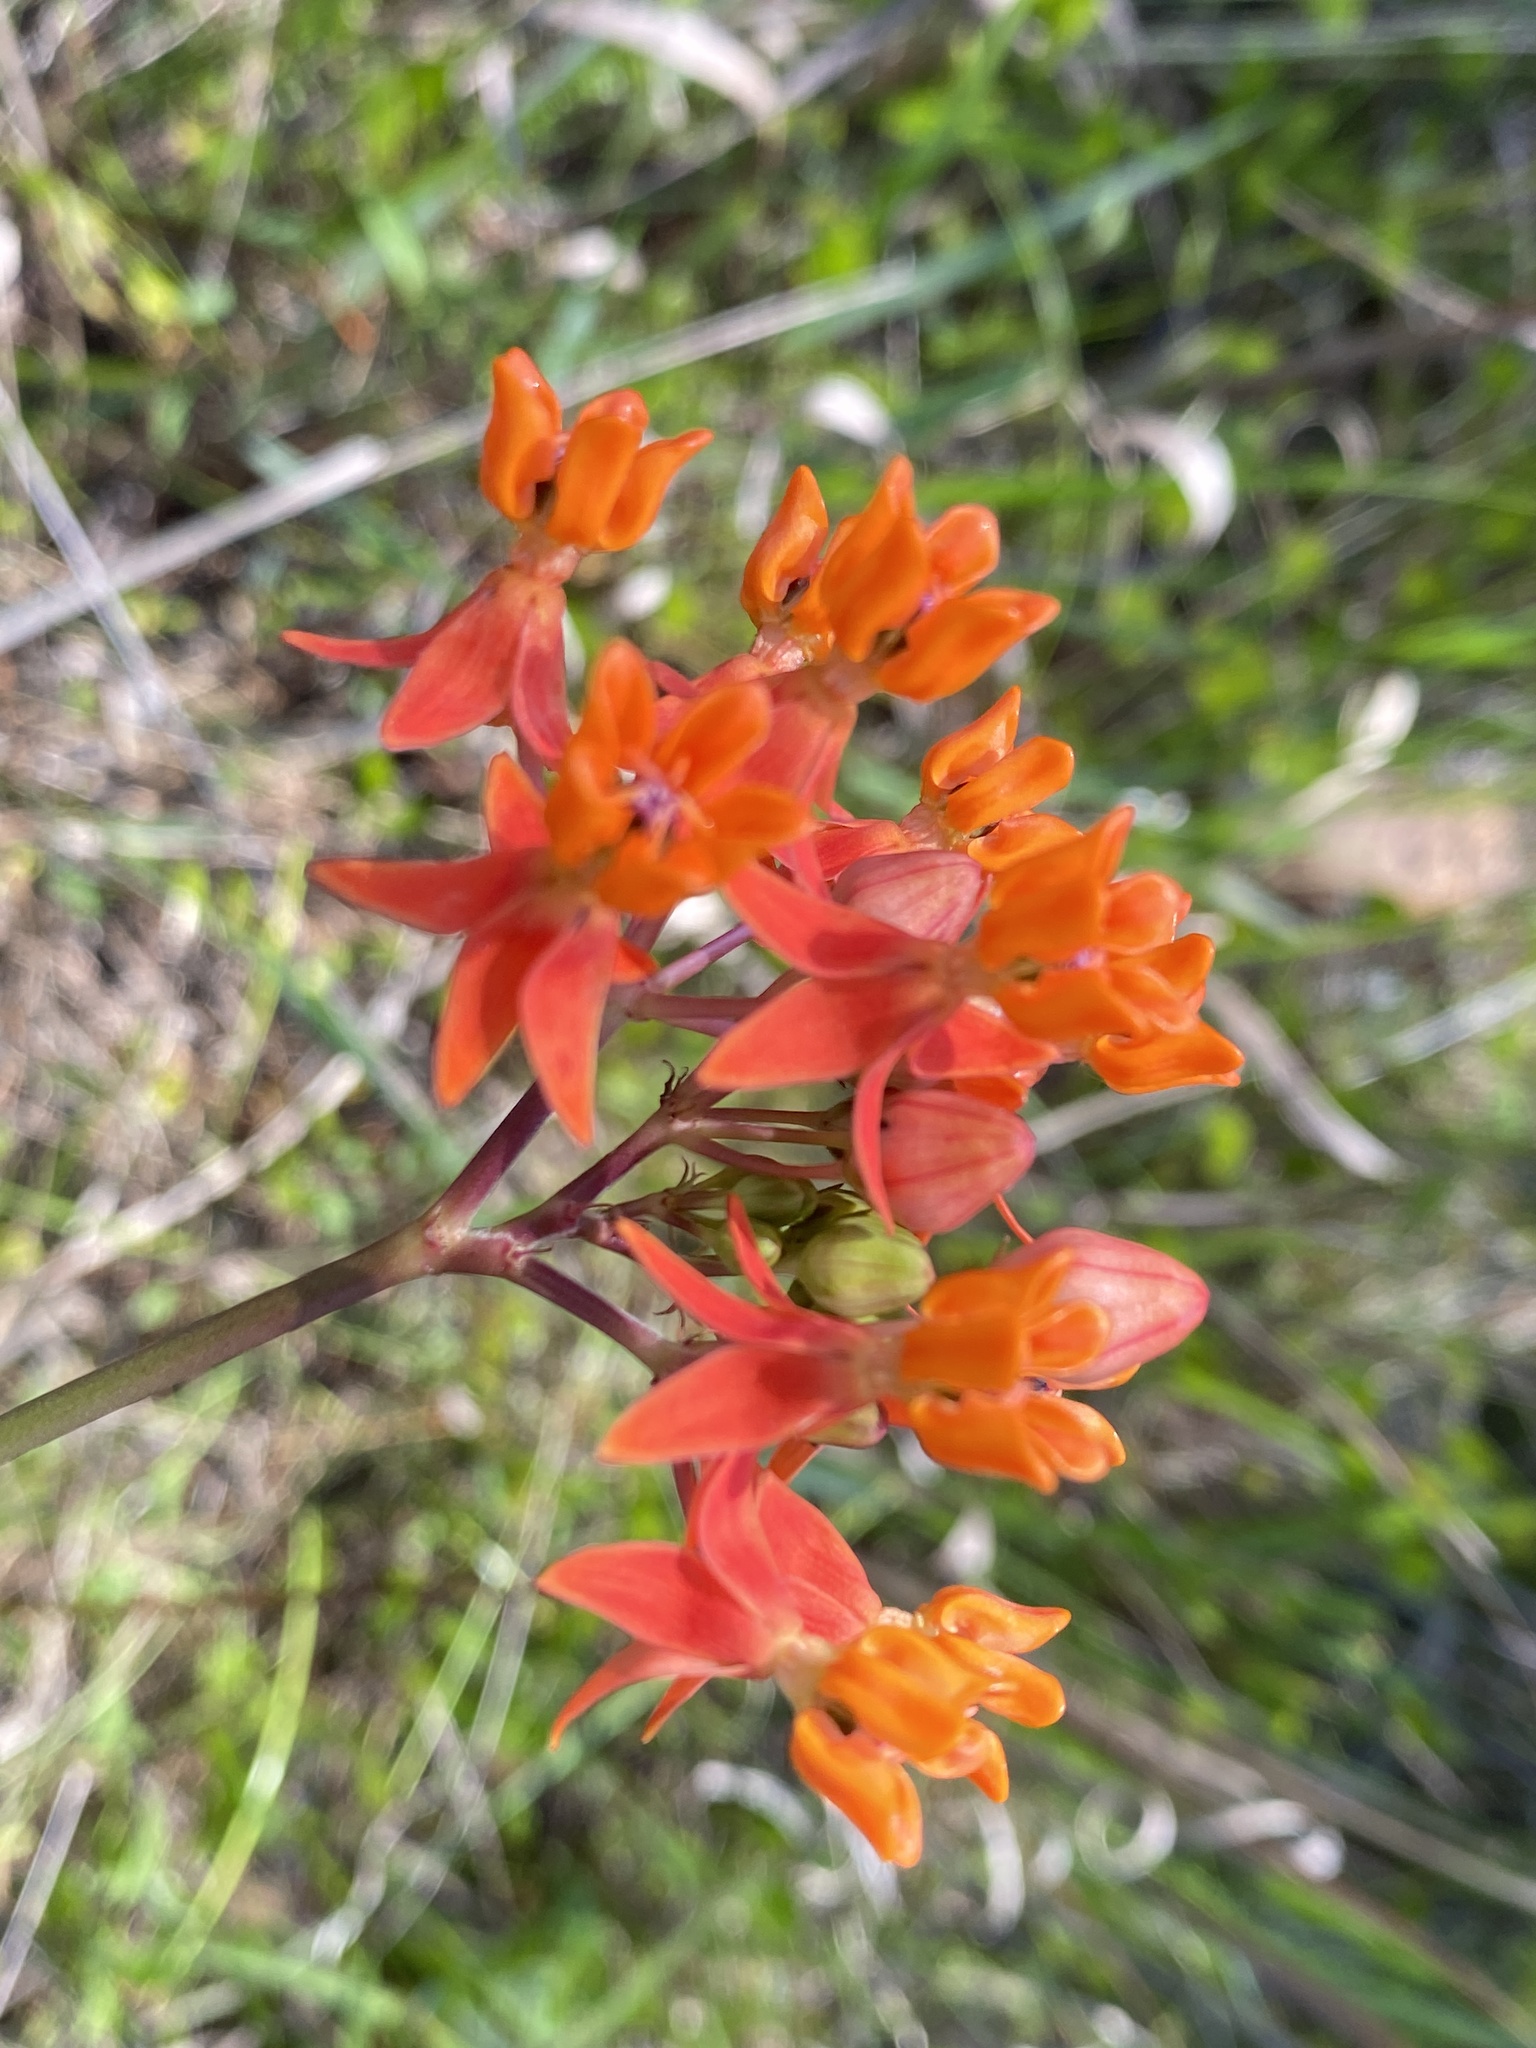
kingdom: Plantae
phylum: Tracheophyta
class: Magnoliopsida
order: Gentianales
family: Apocynaceae
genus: Asclepias
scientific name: Asclepias lanceolata
